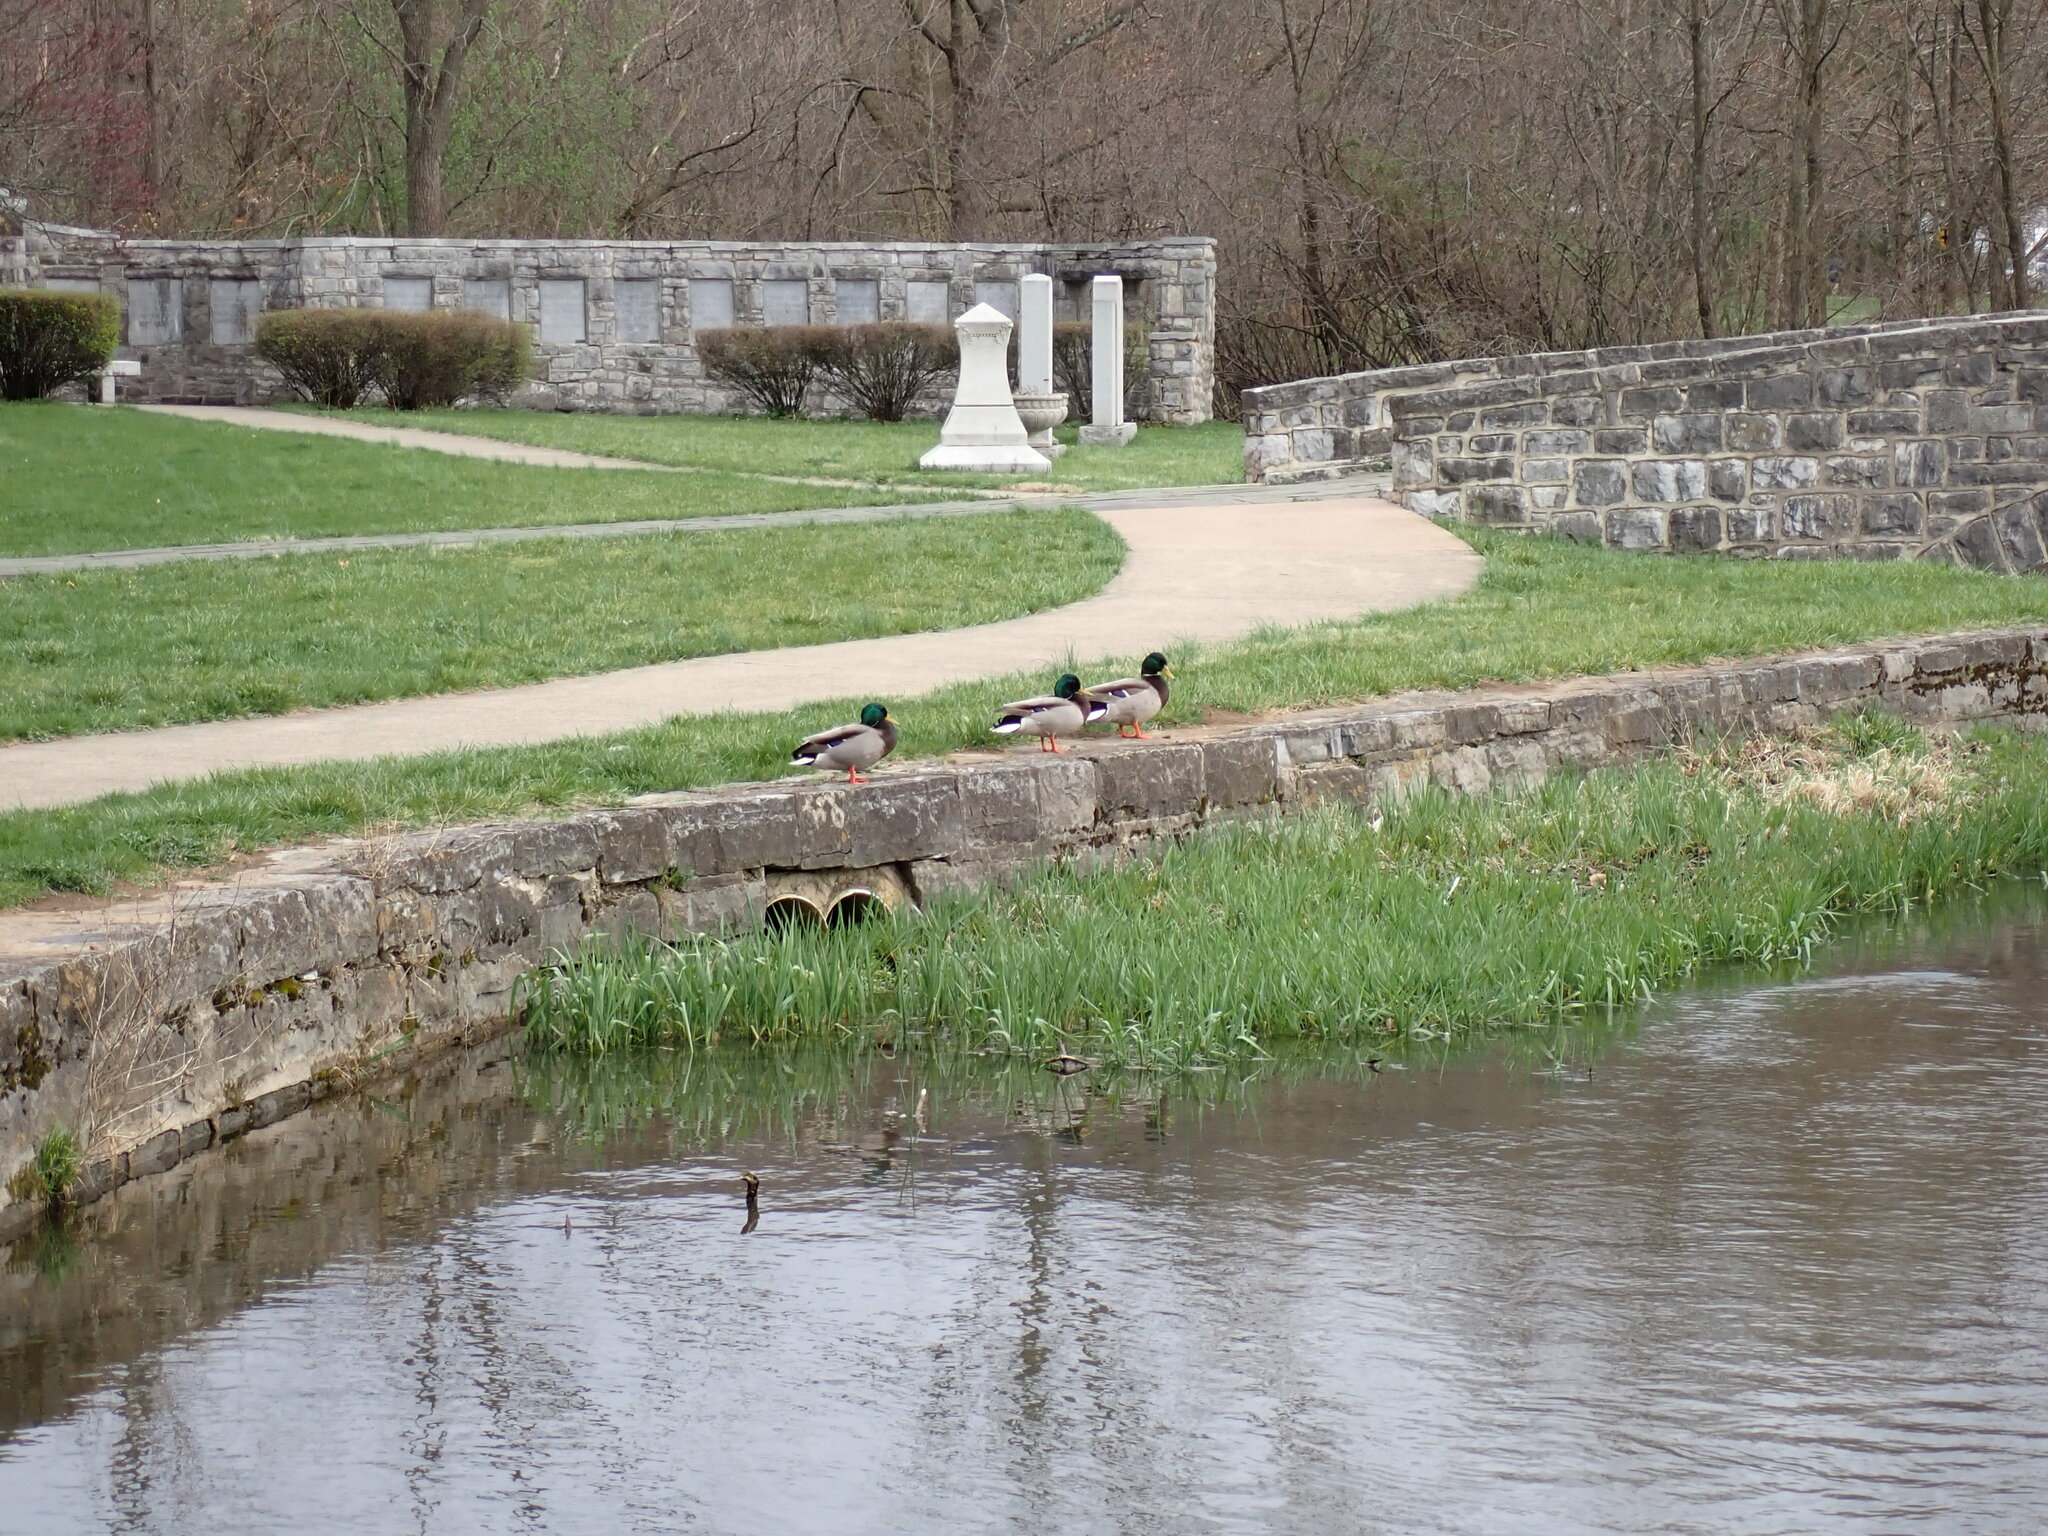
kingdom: Animalia
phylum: Chordata
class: Aves
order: Anseriformes
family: Anatidae
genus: Anas
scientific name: Anas platyrhynchos
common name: Mallard
